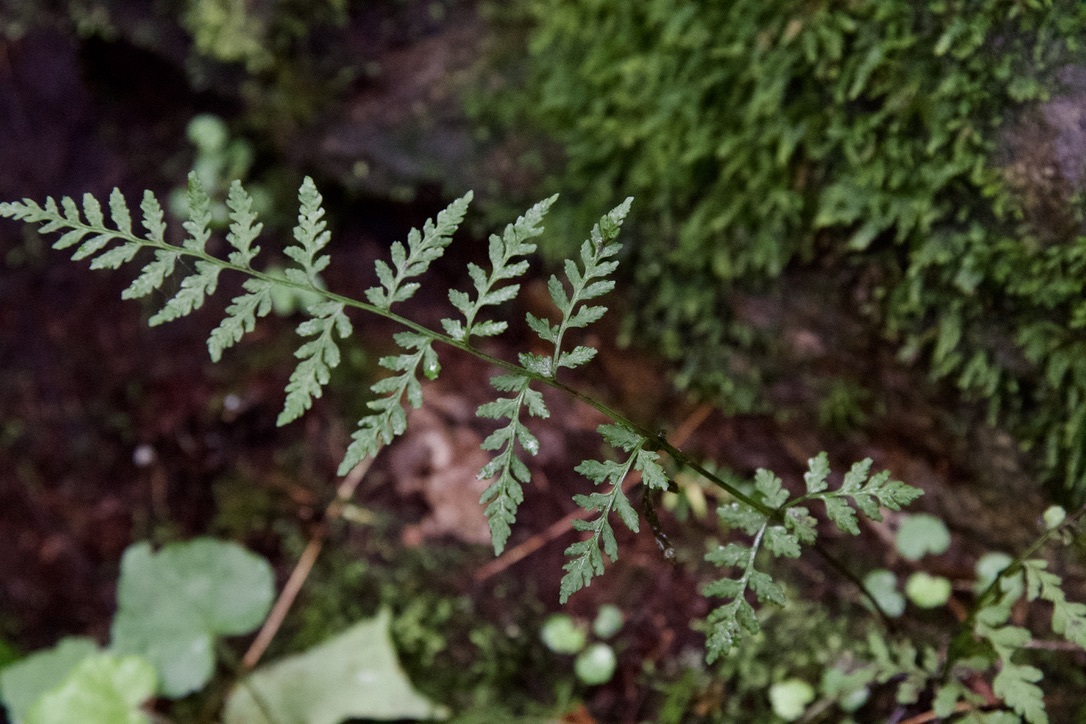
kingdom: Plantae
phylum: Tracheophyta
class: Polypodiopsida
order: Polypodiales
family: Cystopteridaceae
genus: Cystopteris
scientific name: Cystopteris tenuis
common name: Mackay's brittle fern
